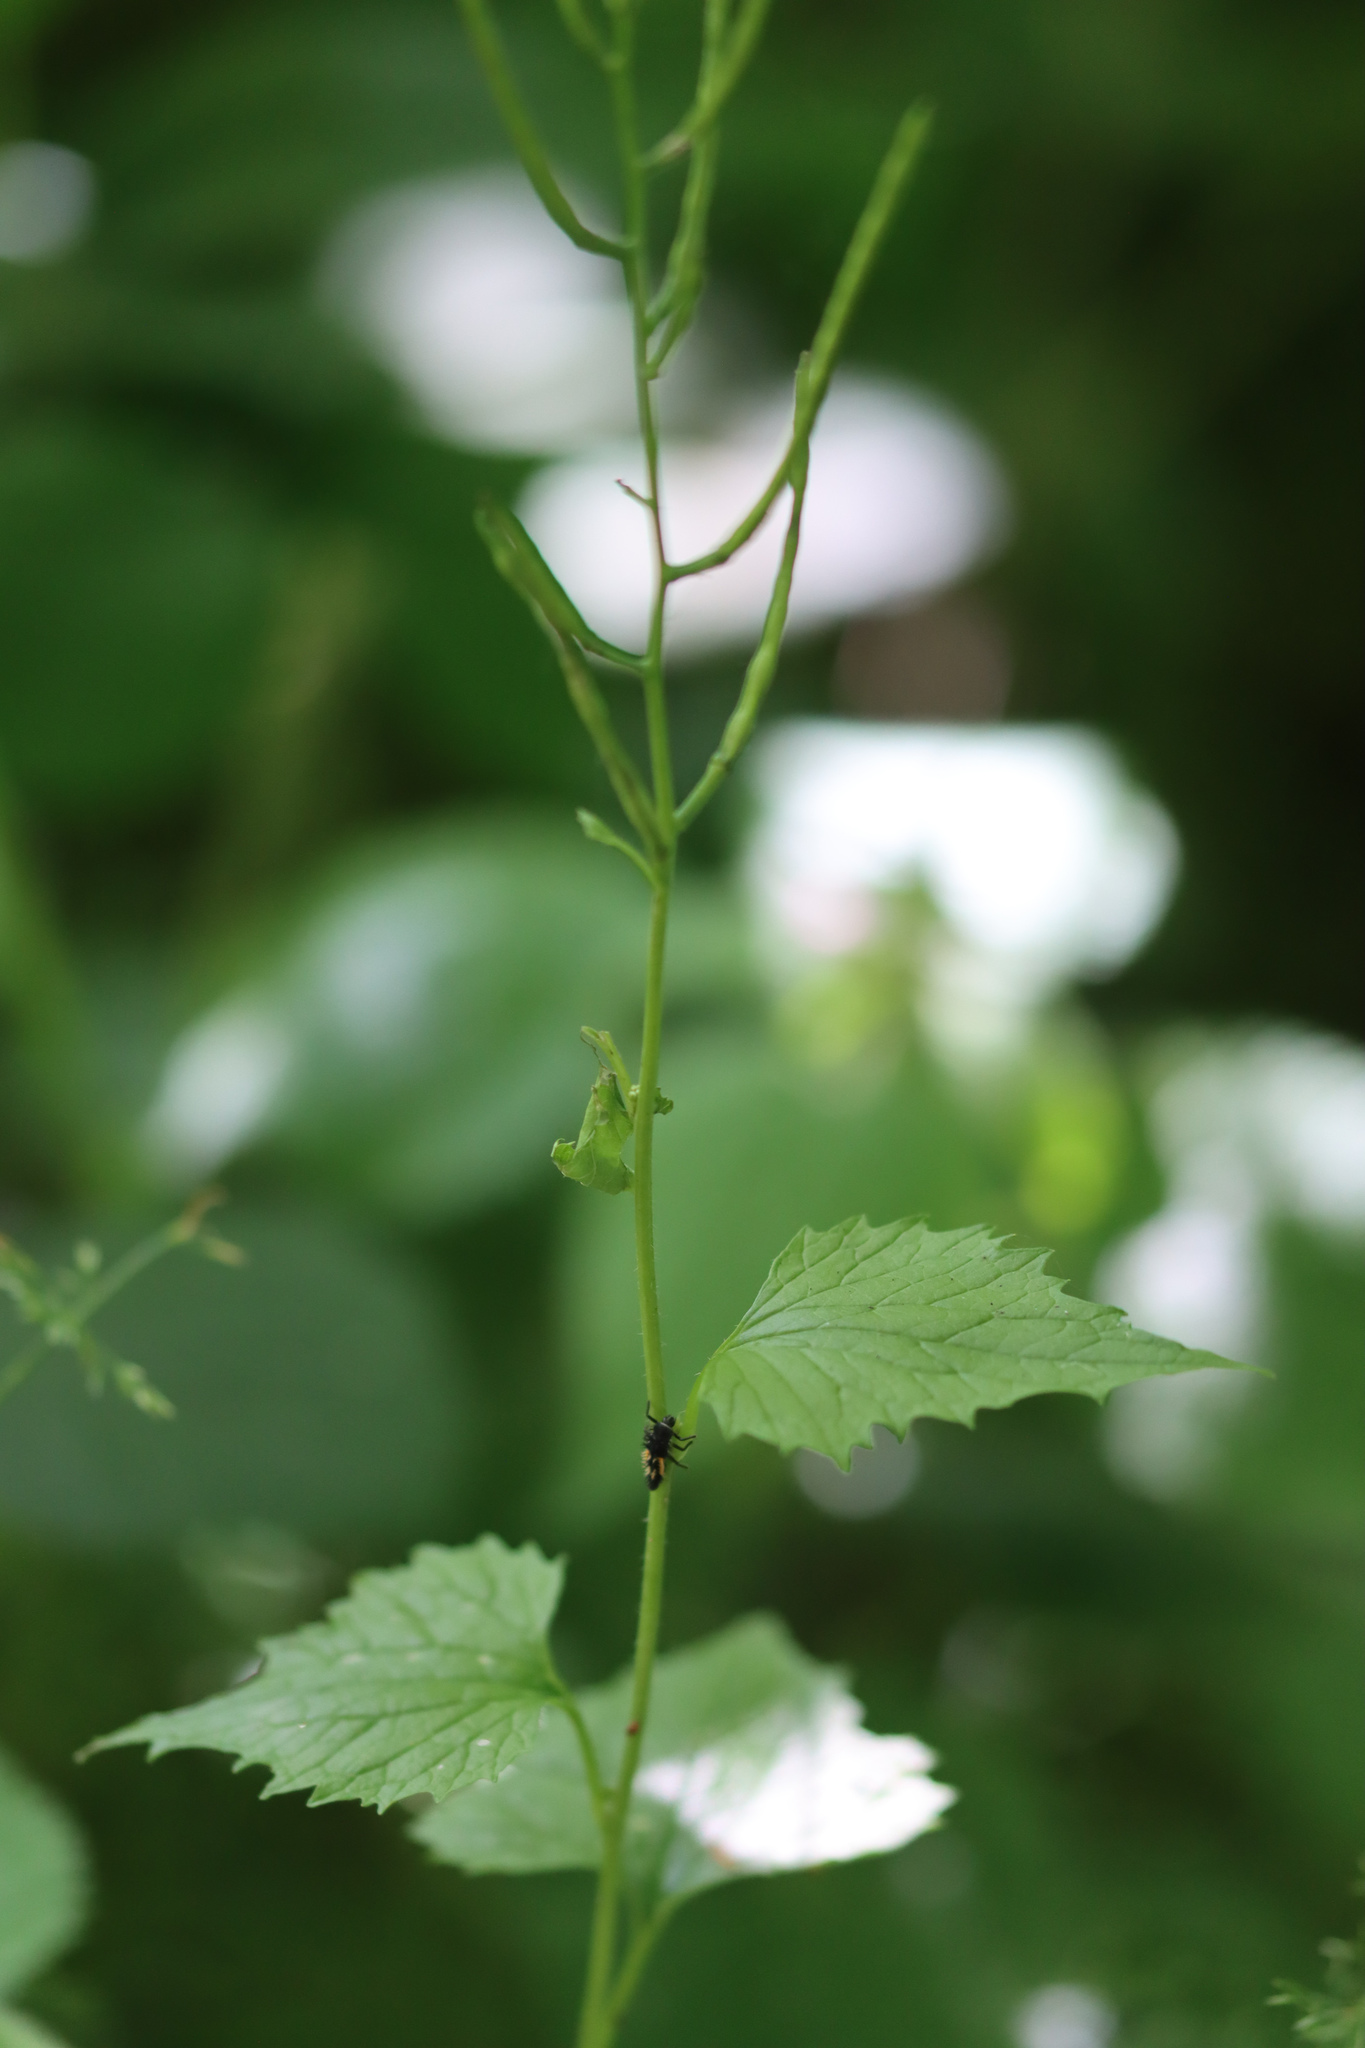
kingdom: Plantae
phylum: Tracheophyta
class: Magnoliopsida
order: Brassicales
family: Brassicaceae
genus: Alliaria
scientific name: Alliaria petiolata
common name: Garlic mustard
